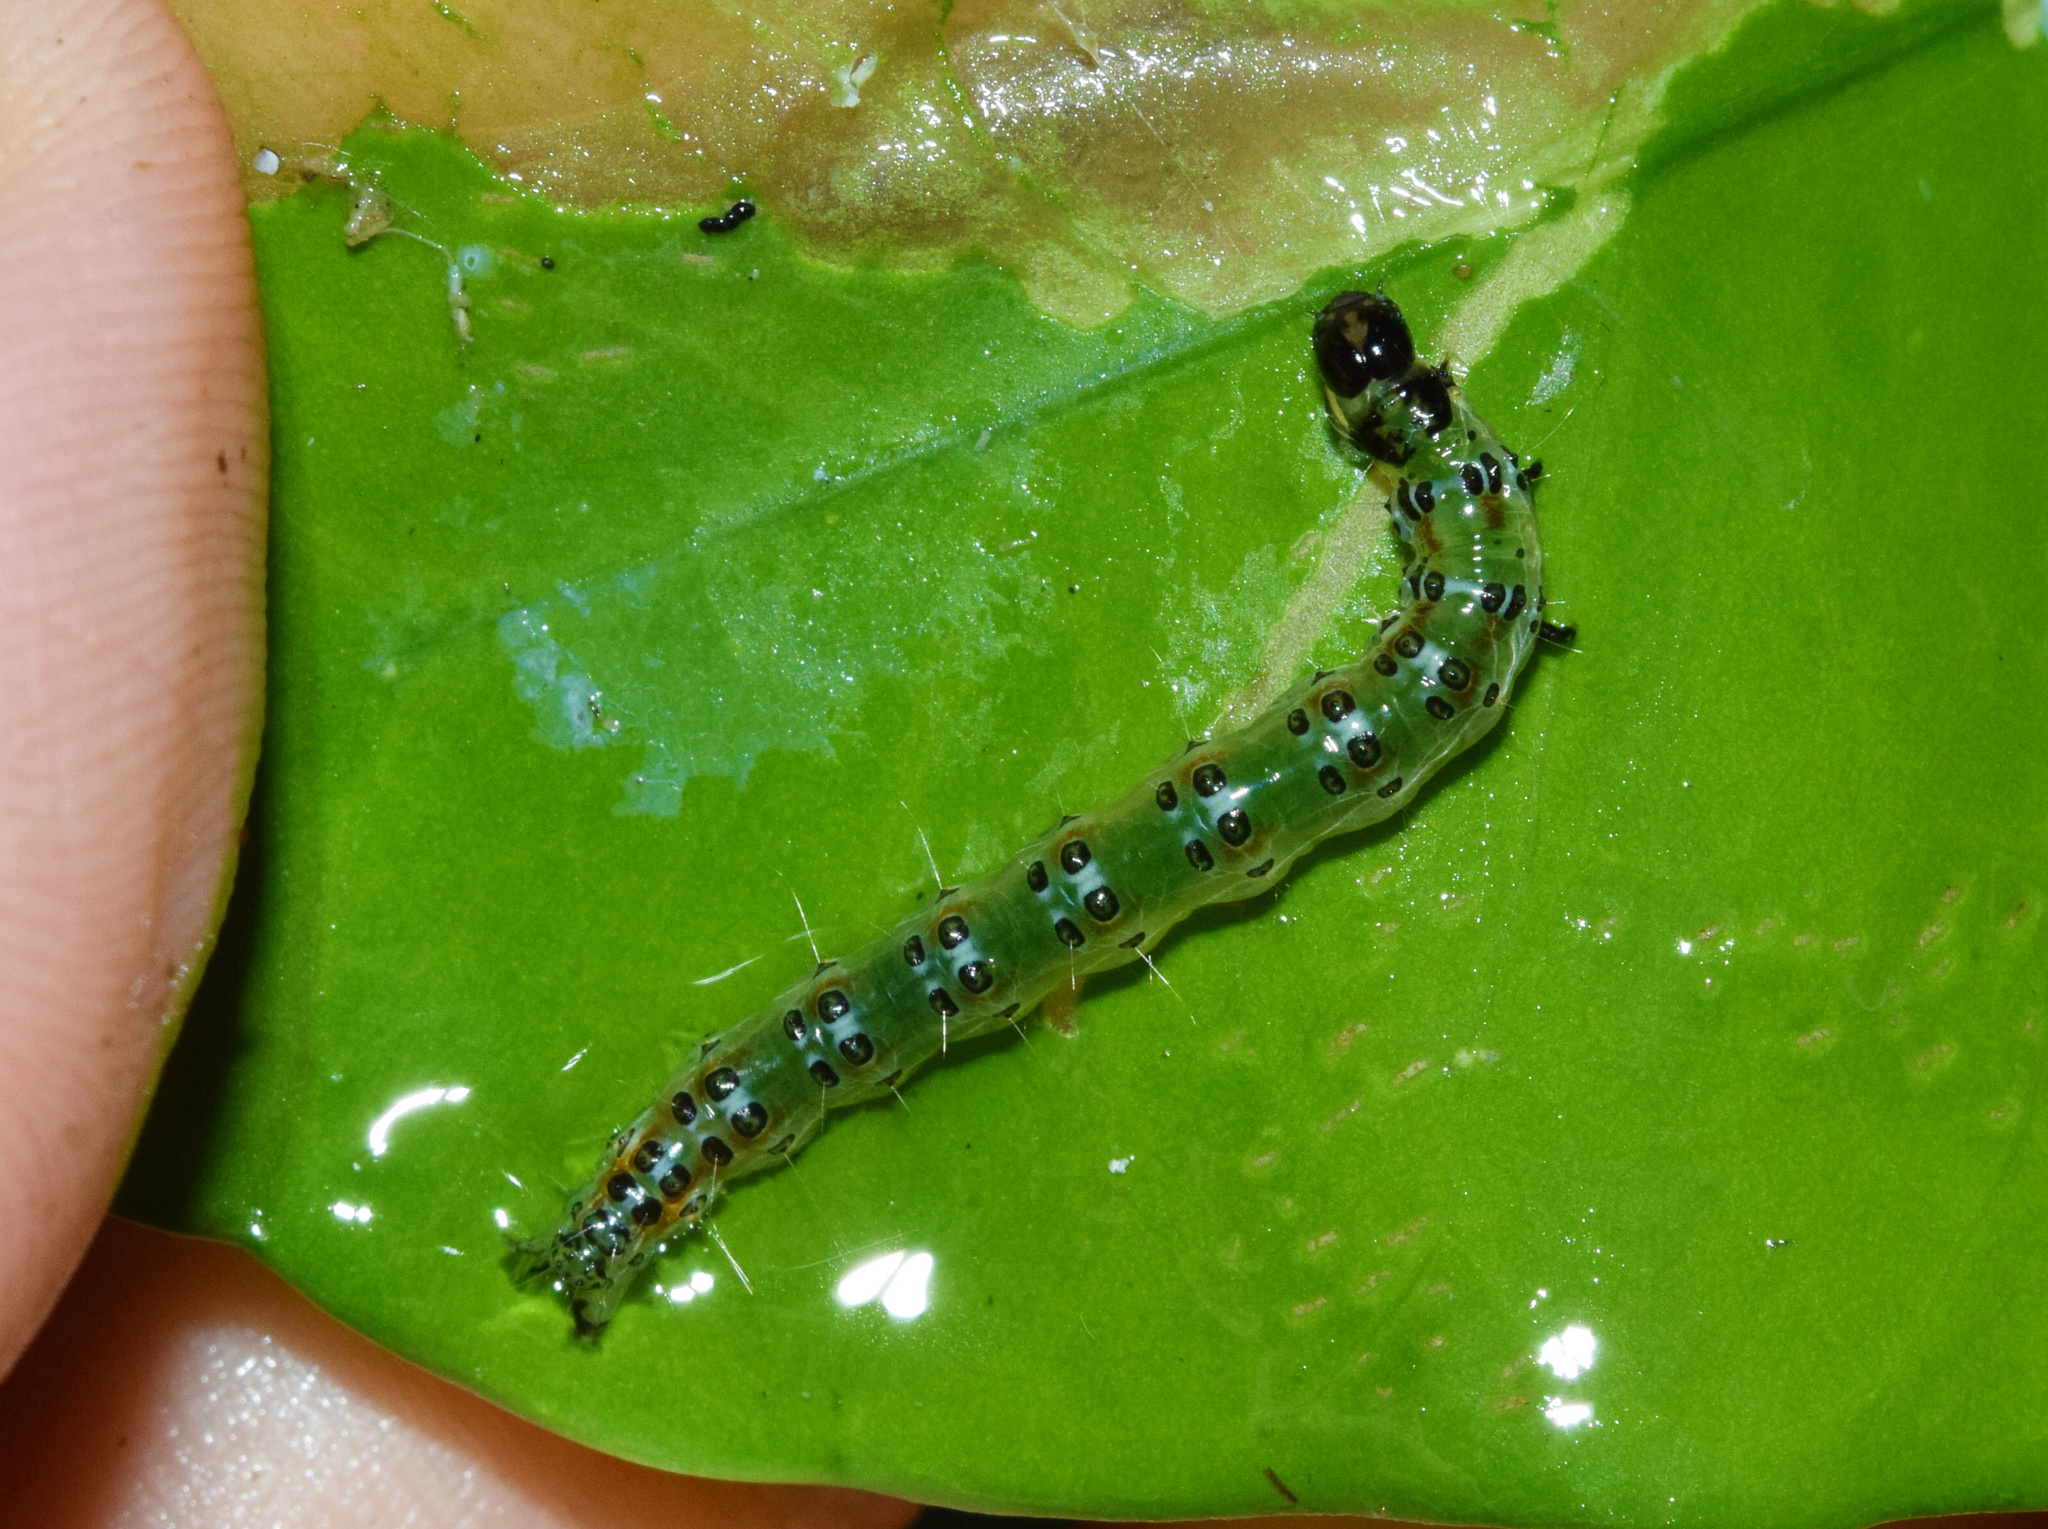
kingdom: Animalia
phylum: Arthropoda
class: Insecta
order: Lepidoptera
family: Crambidae
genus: Stemorrhages
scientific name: Stemorrhages sericea
